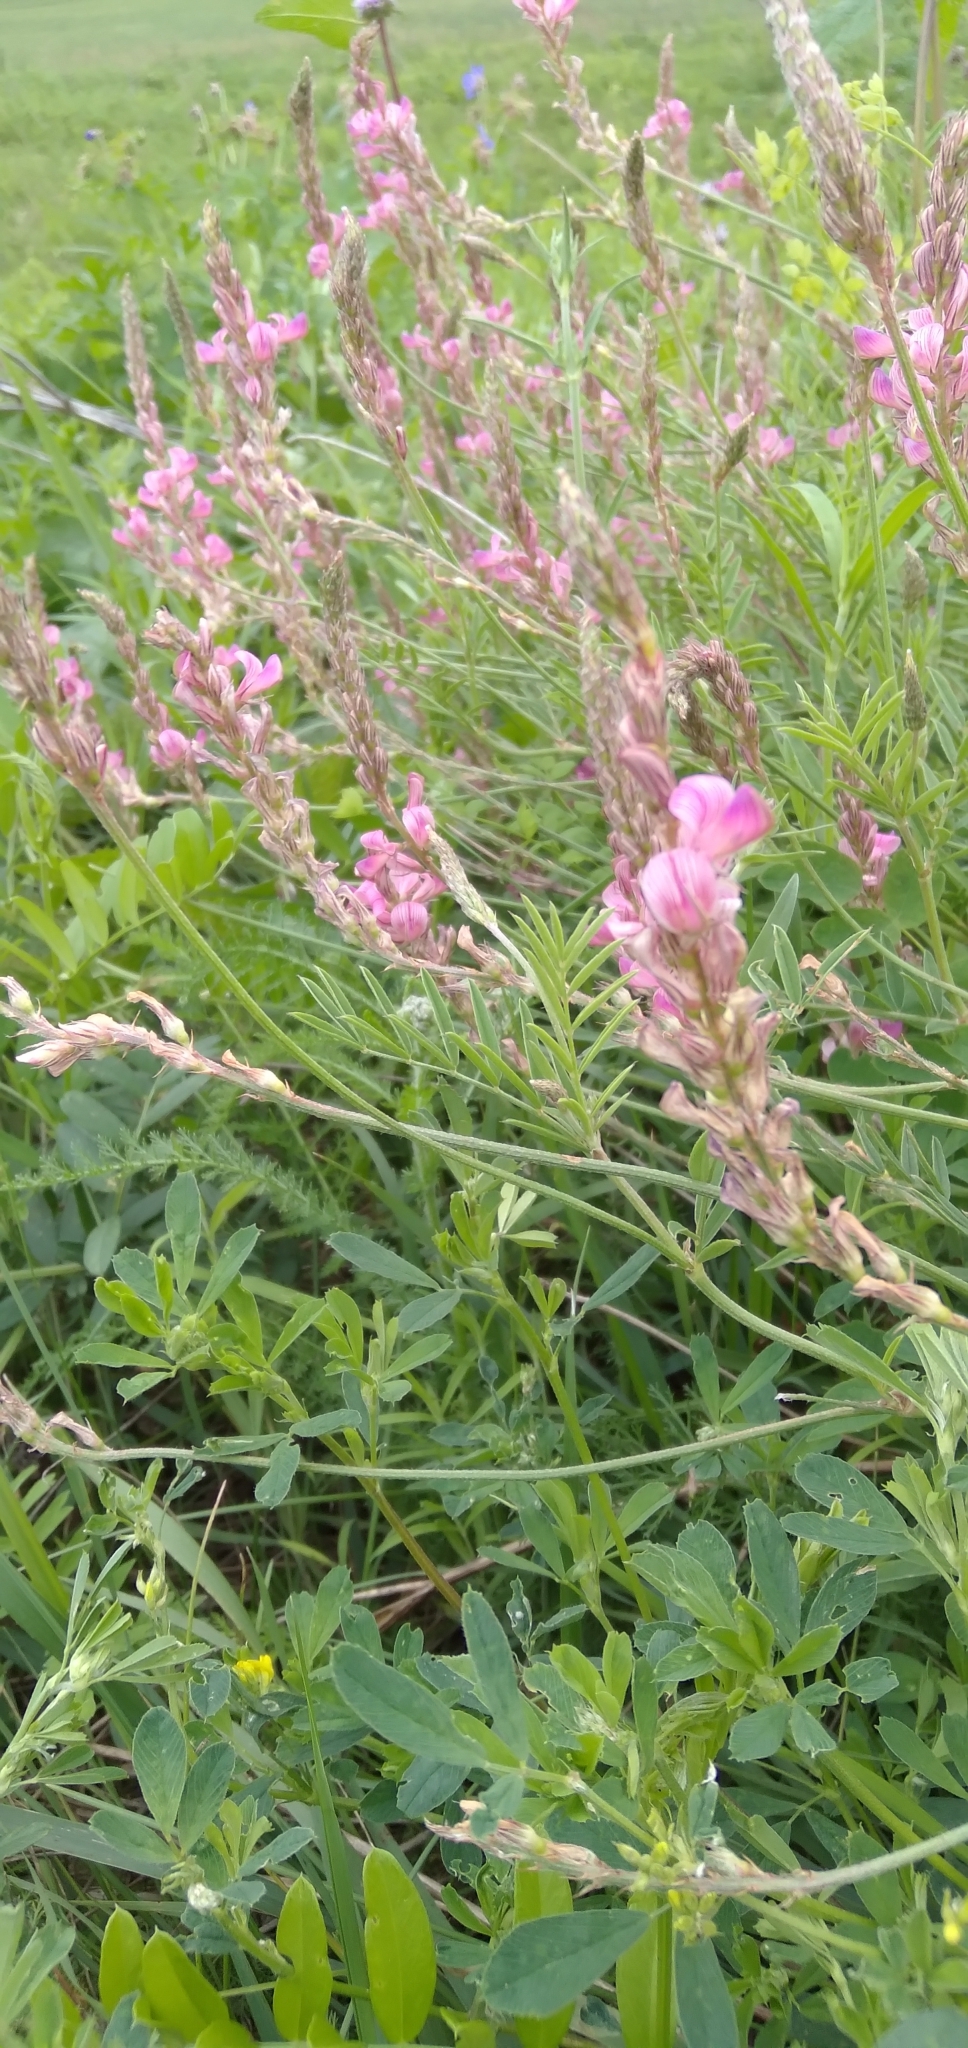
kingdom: Plantae
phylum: Tracheophyta
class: Magnoliopsida
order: Fabales
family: Fabaceae
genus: Onobrychis
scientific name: Onobrychis arenaria
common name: Sand esparcet
